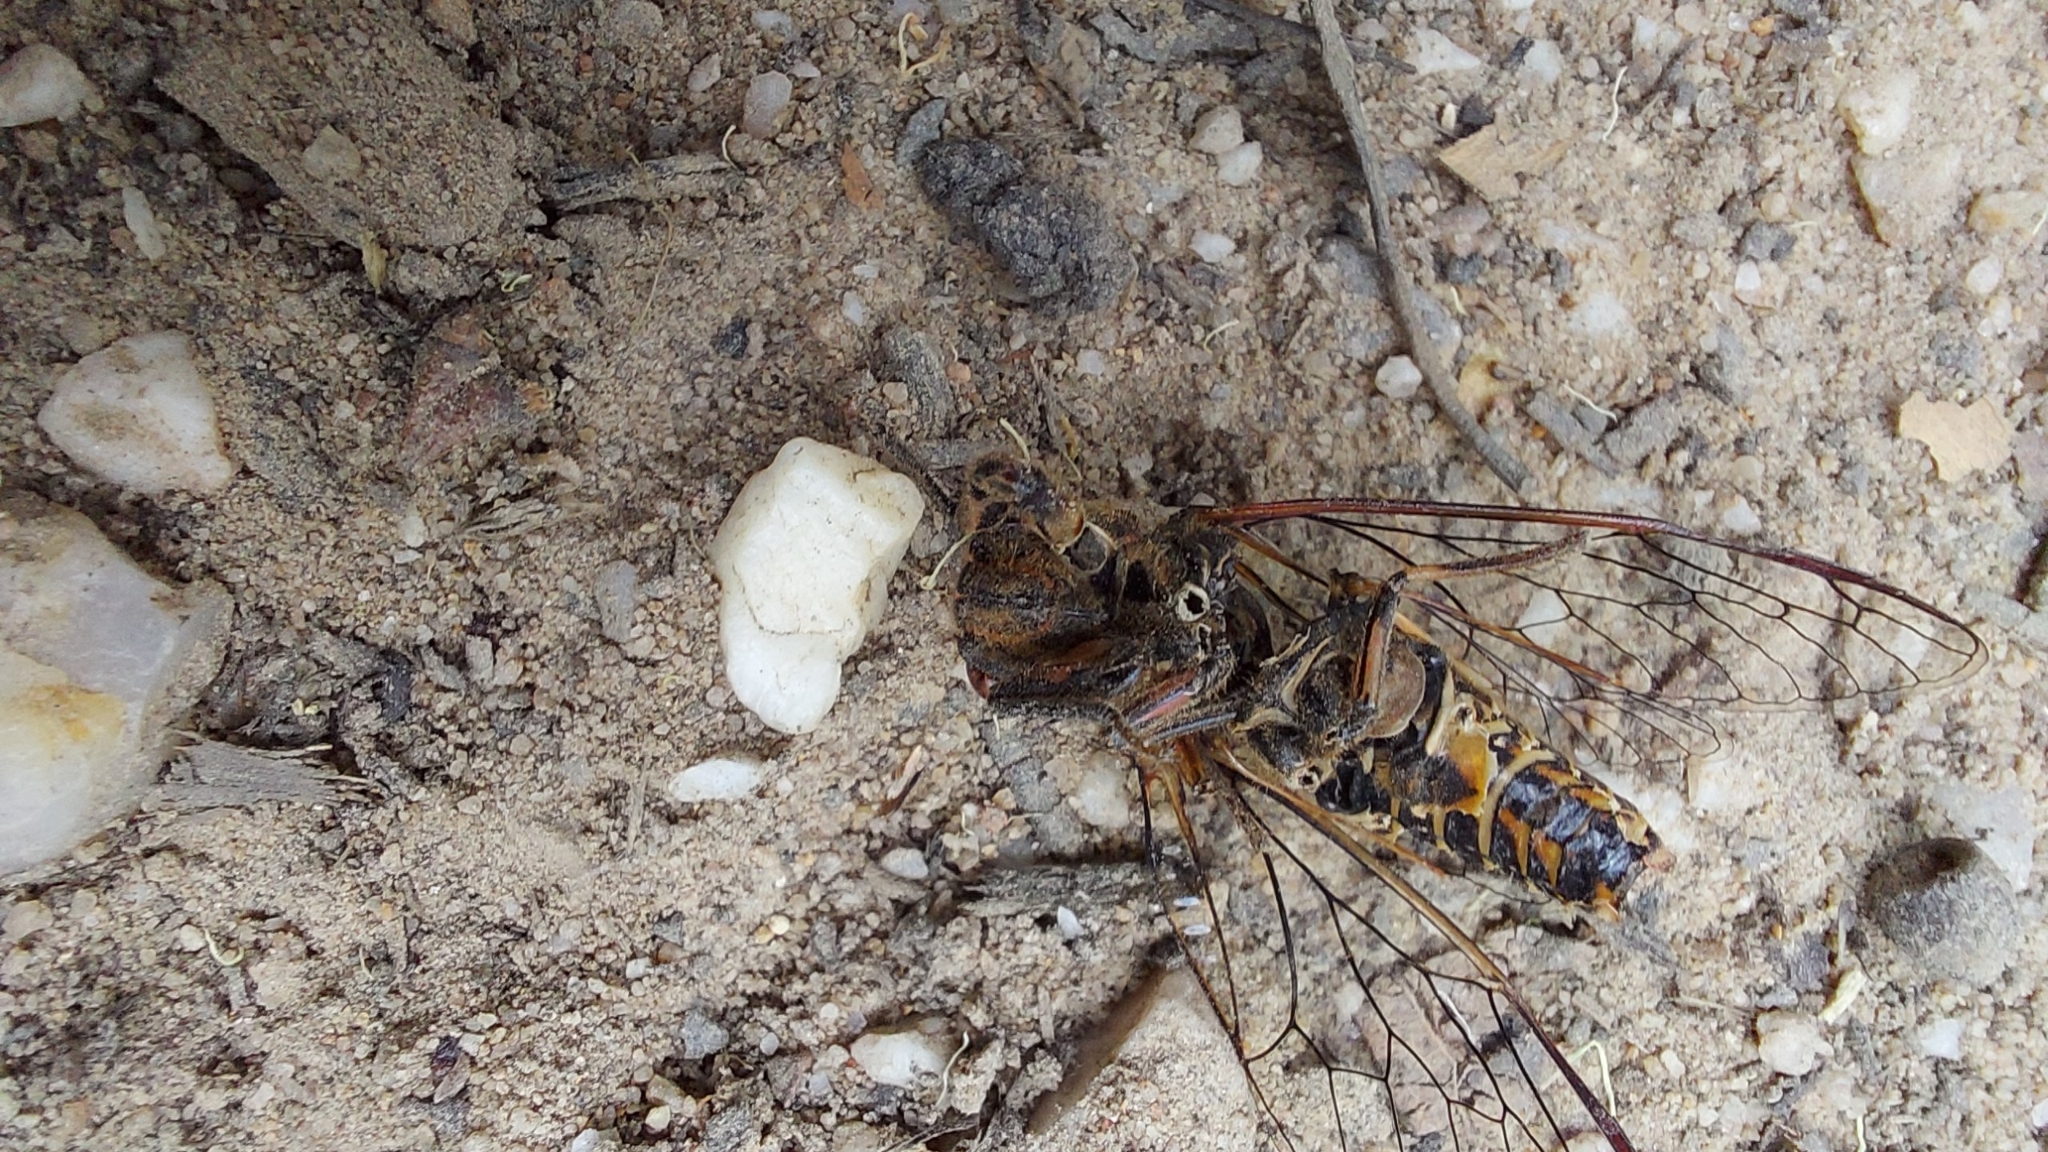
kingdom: Animalia
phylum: Arthropoda
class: Insecta
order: Hemiptera
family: Cicadidae
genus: Yoyetta
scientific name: Yoyetta abdominalis
